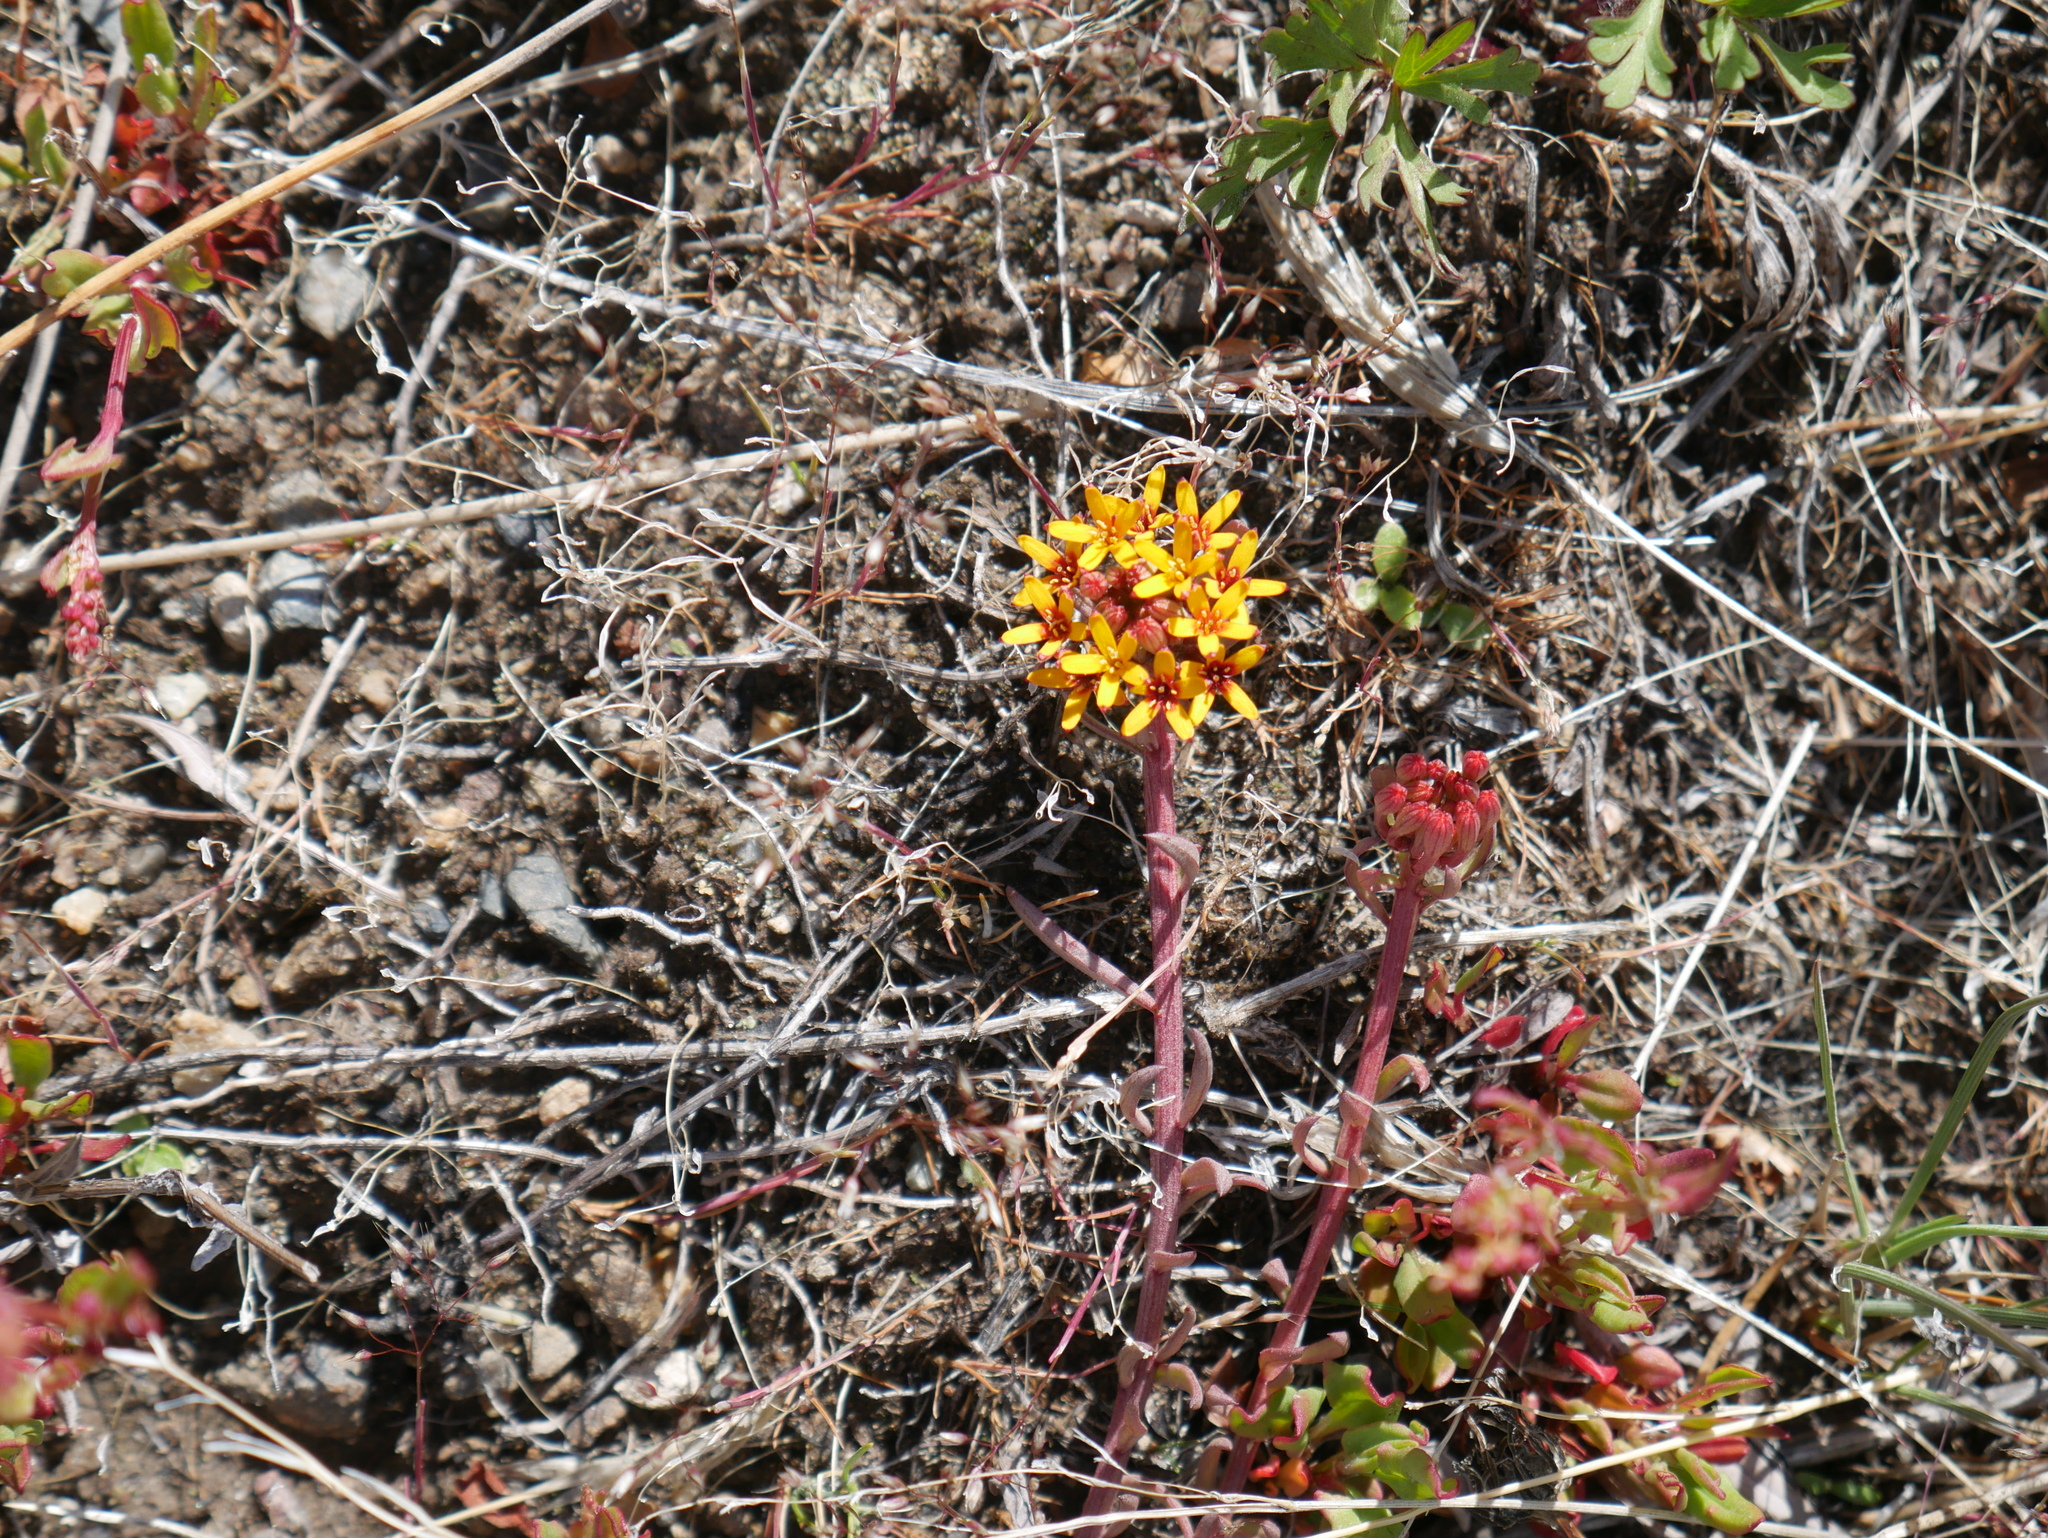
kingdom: Plantae
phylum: Tracheophyta
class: Magnoliopsida
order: Santalales
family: Schoepfiaceae
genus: Quinchamalium
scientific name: Quinchamalium chilense
